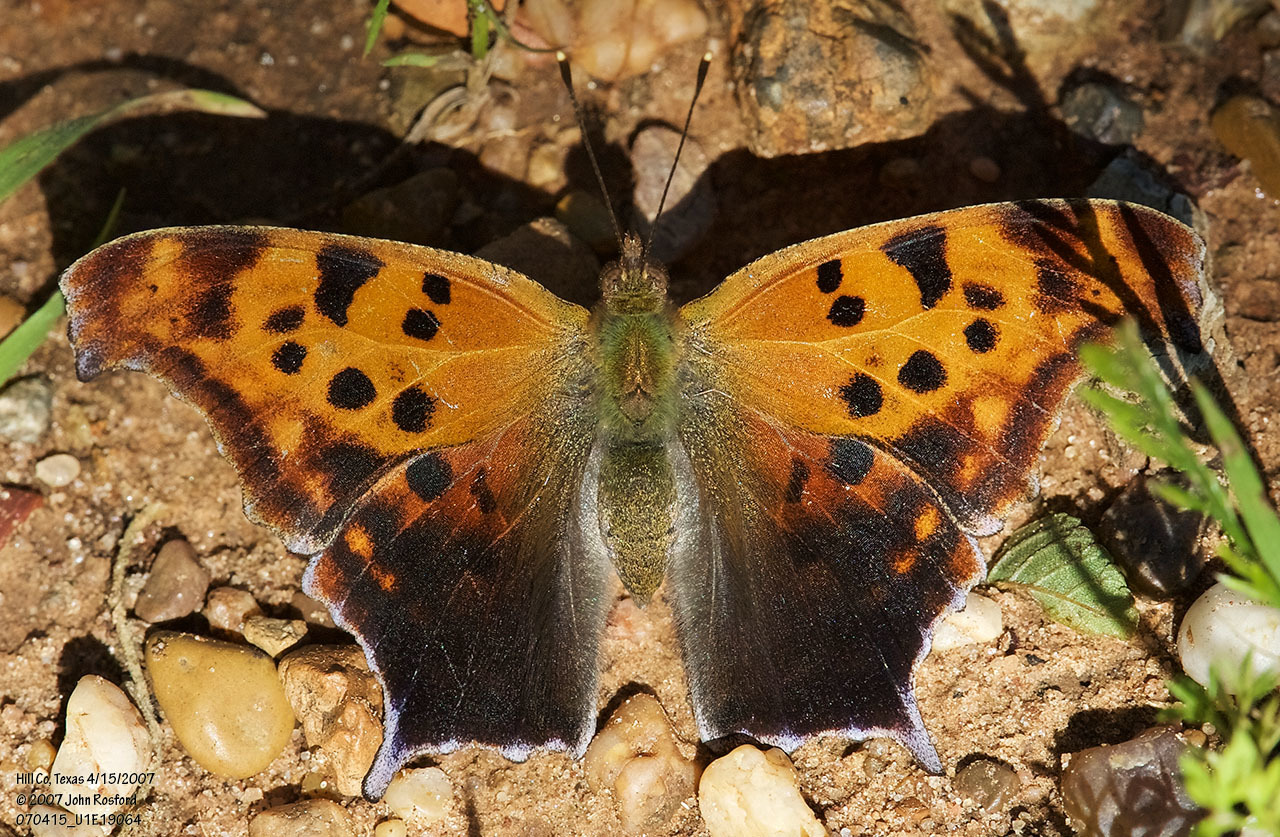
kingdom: Animalia
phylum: Arthropoda
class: Insecta
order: Lepidoptera
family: Nymphalidae
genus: Polygonia
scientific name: Polygonia interrogationis
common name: Question mark
